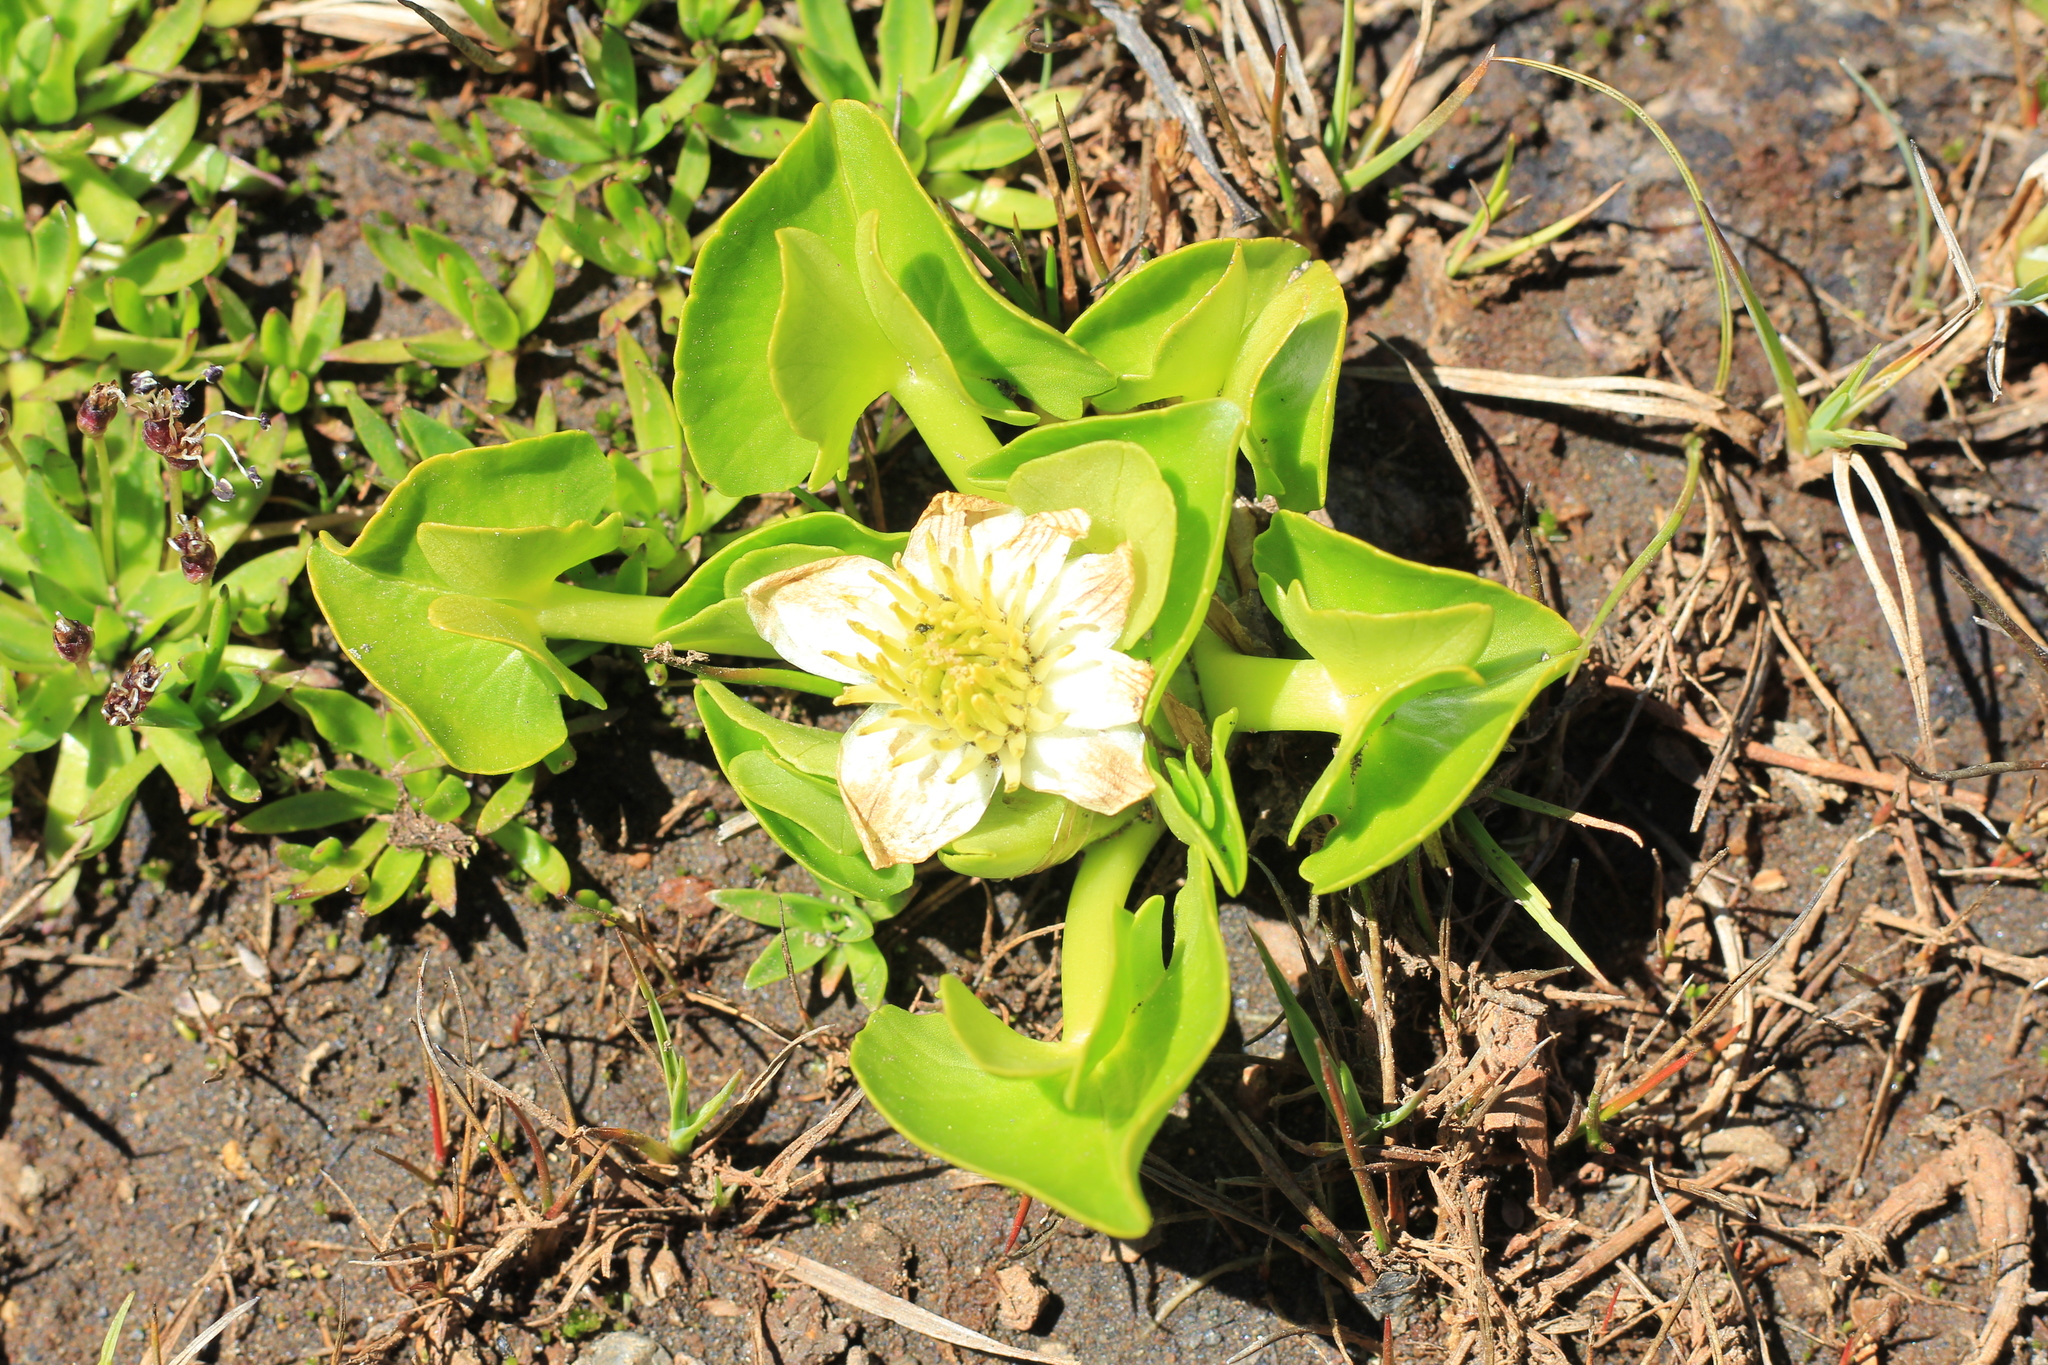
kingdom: Plantae
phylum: Tracheophyta
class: Magnoliopsida
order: Ranunculales
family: Ranunculaceae
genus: Caltha
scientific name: Caltha sagittata
